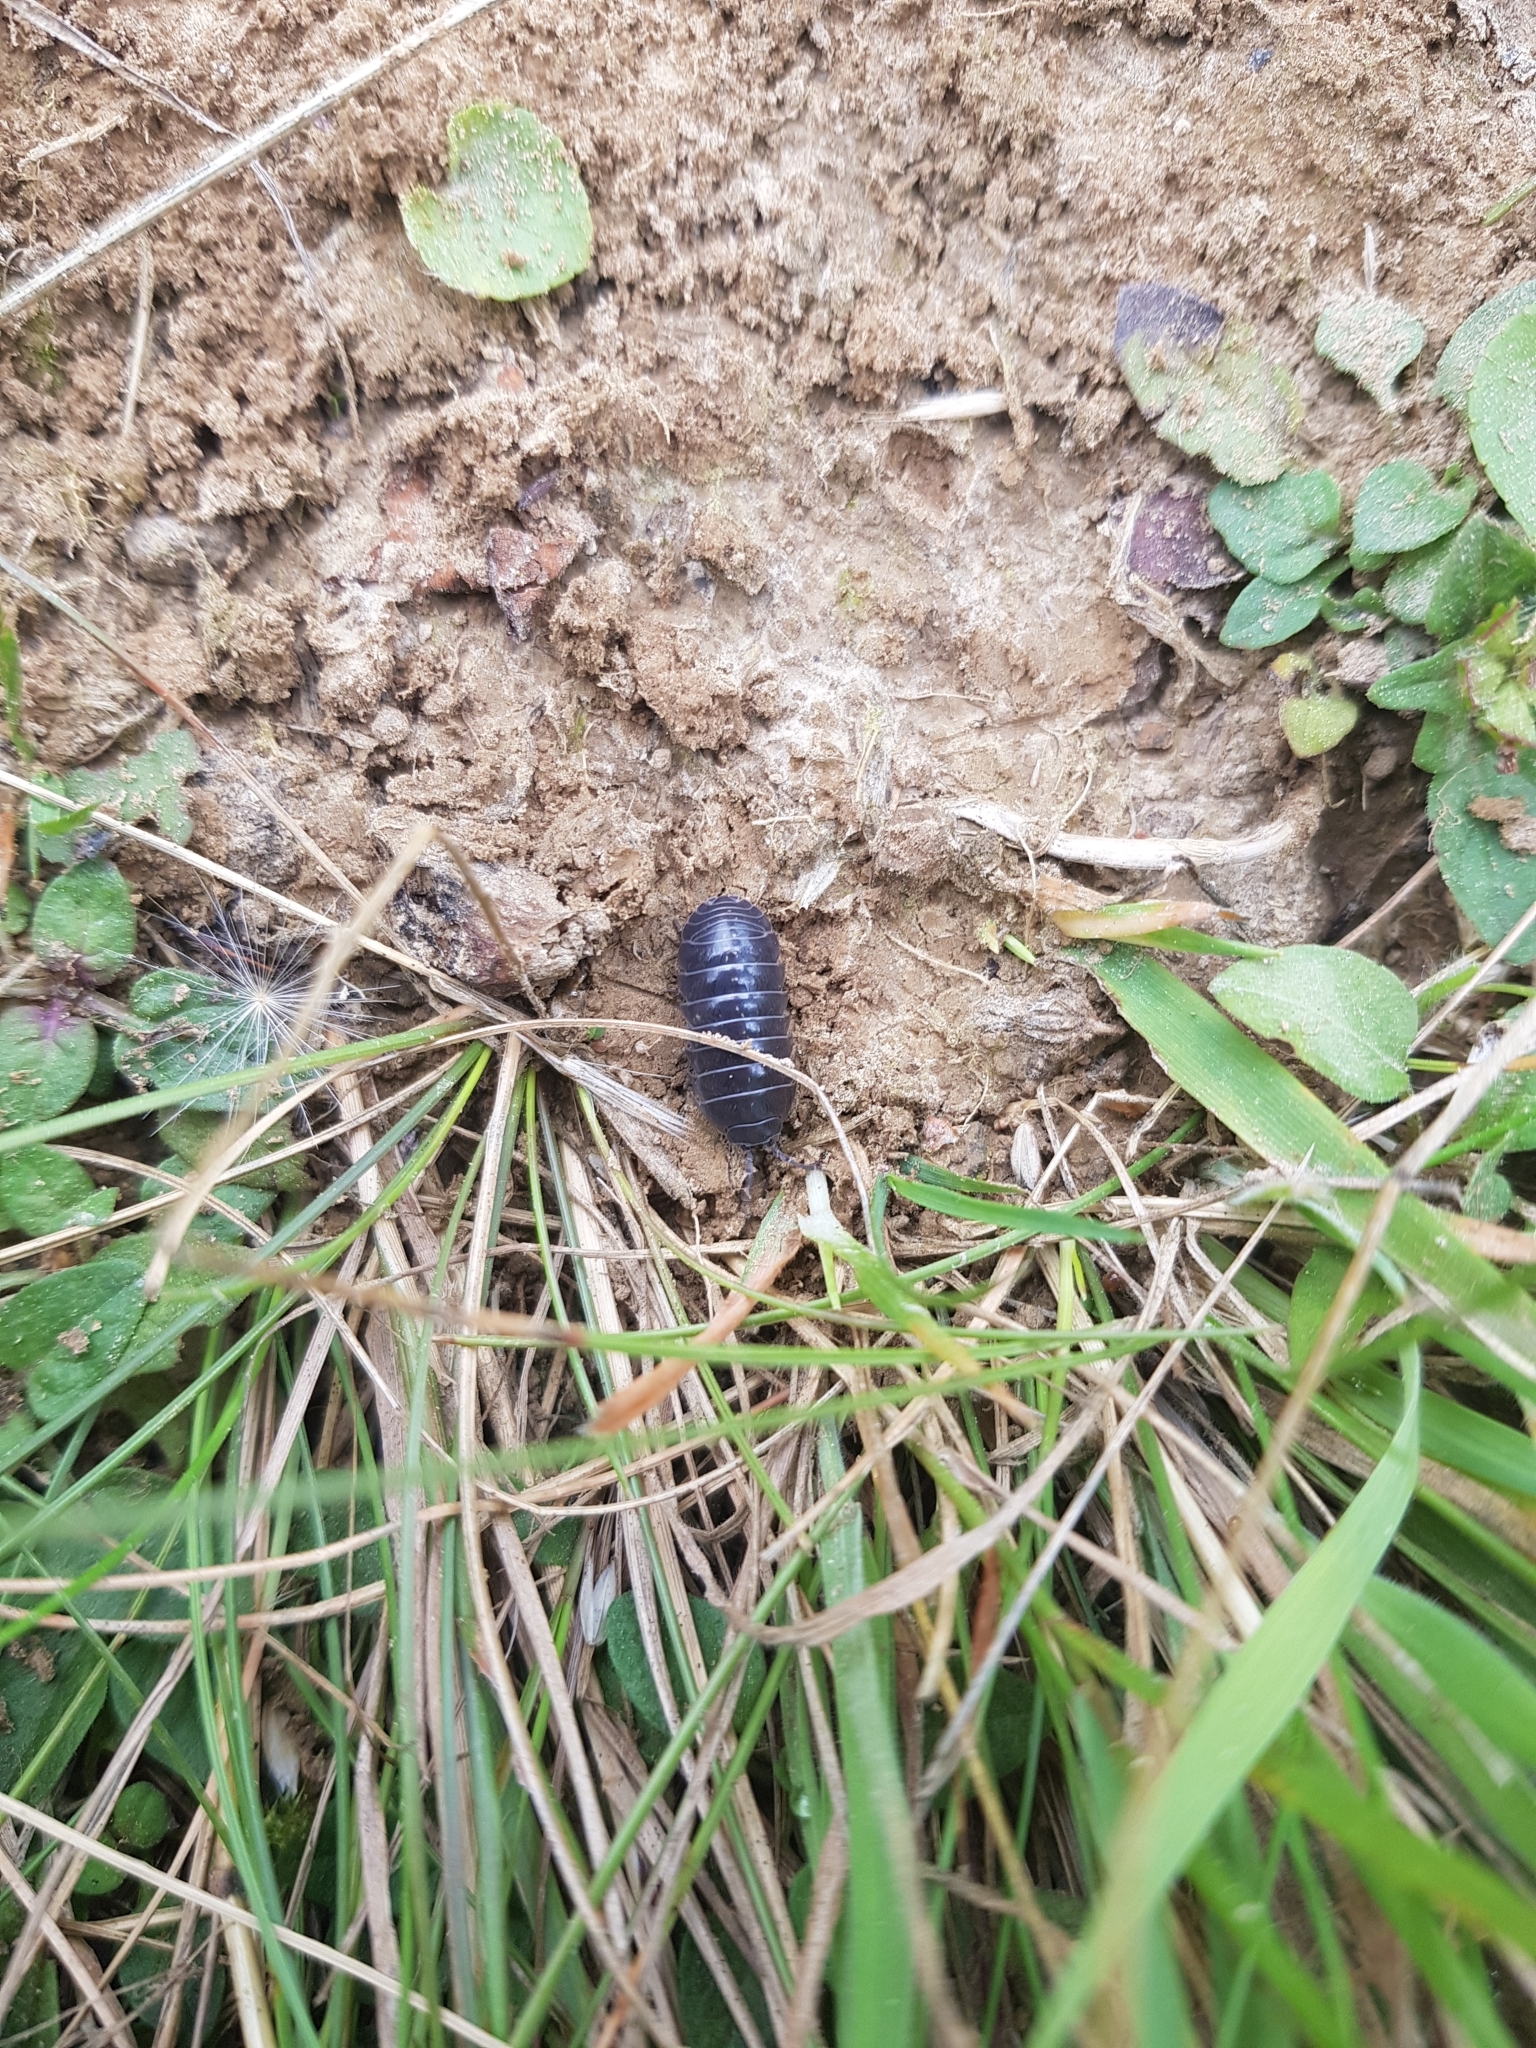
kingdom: Animalia
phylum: Arthropoda
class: Malacostraca
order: Isopoda
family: Armadillidiidae
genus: Armadillidium
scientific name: Armadillidium vulgare
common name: Common pill woodlouse
